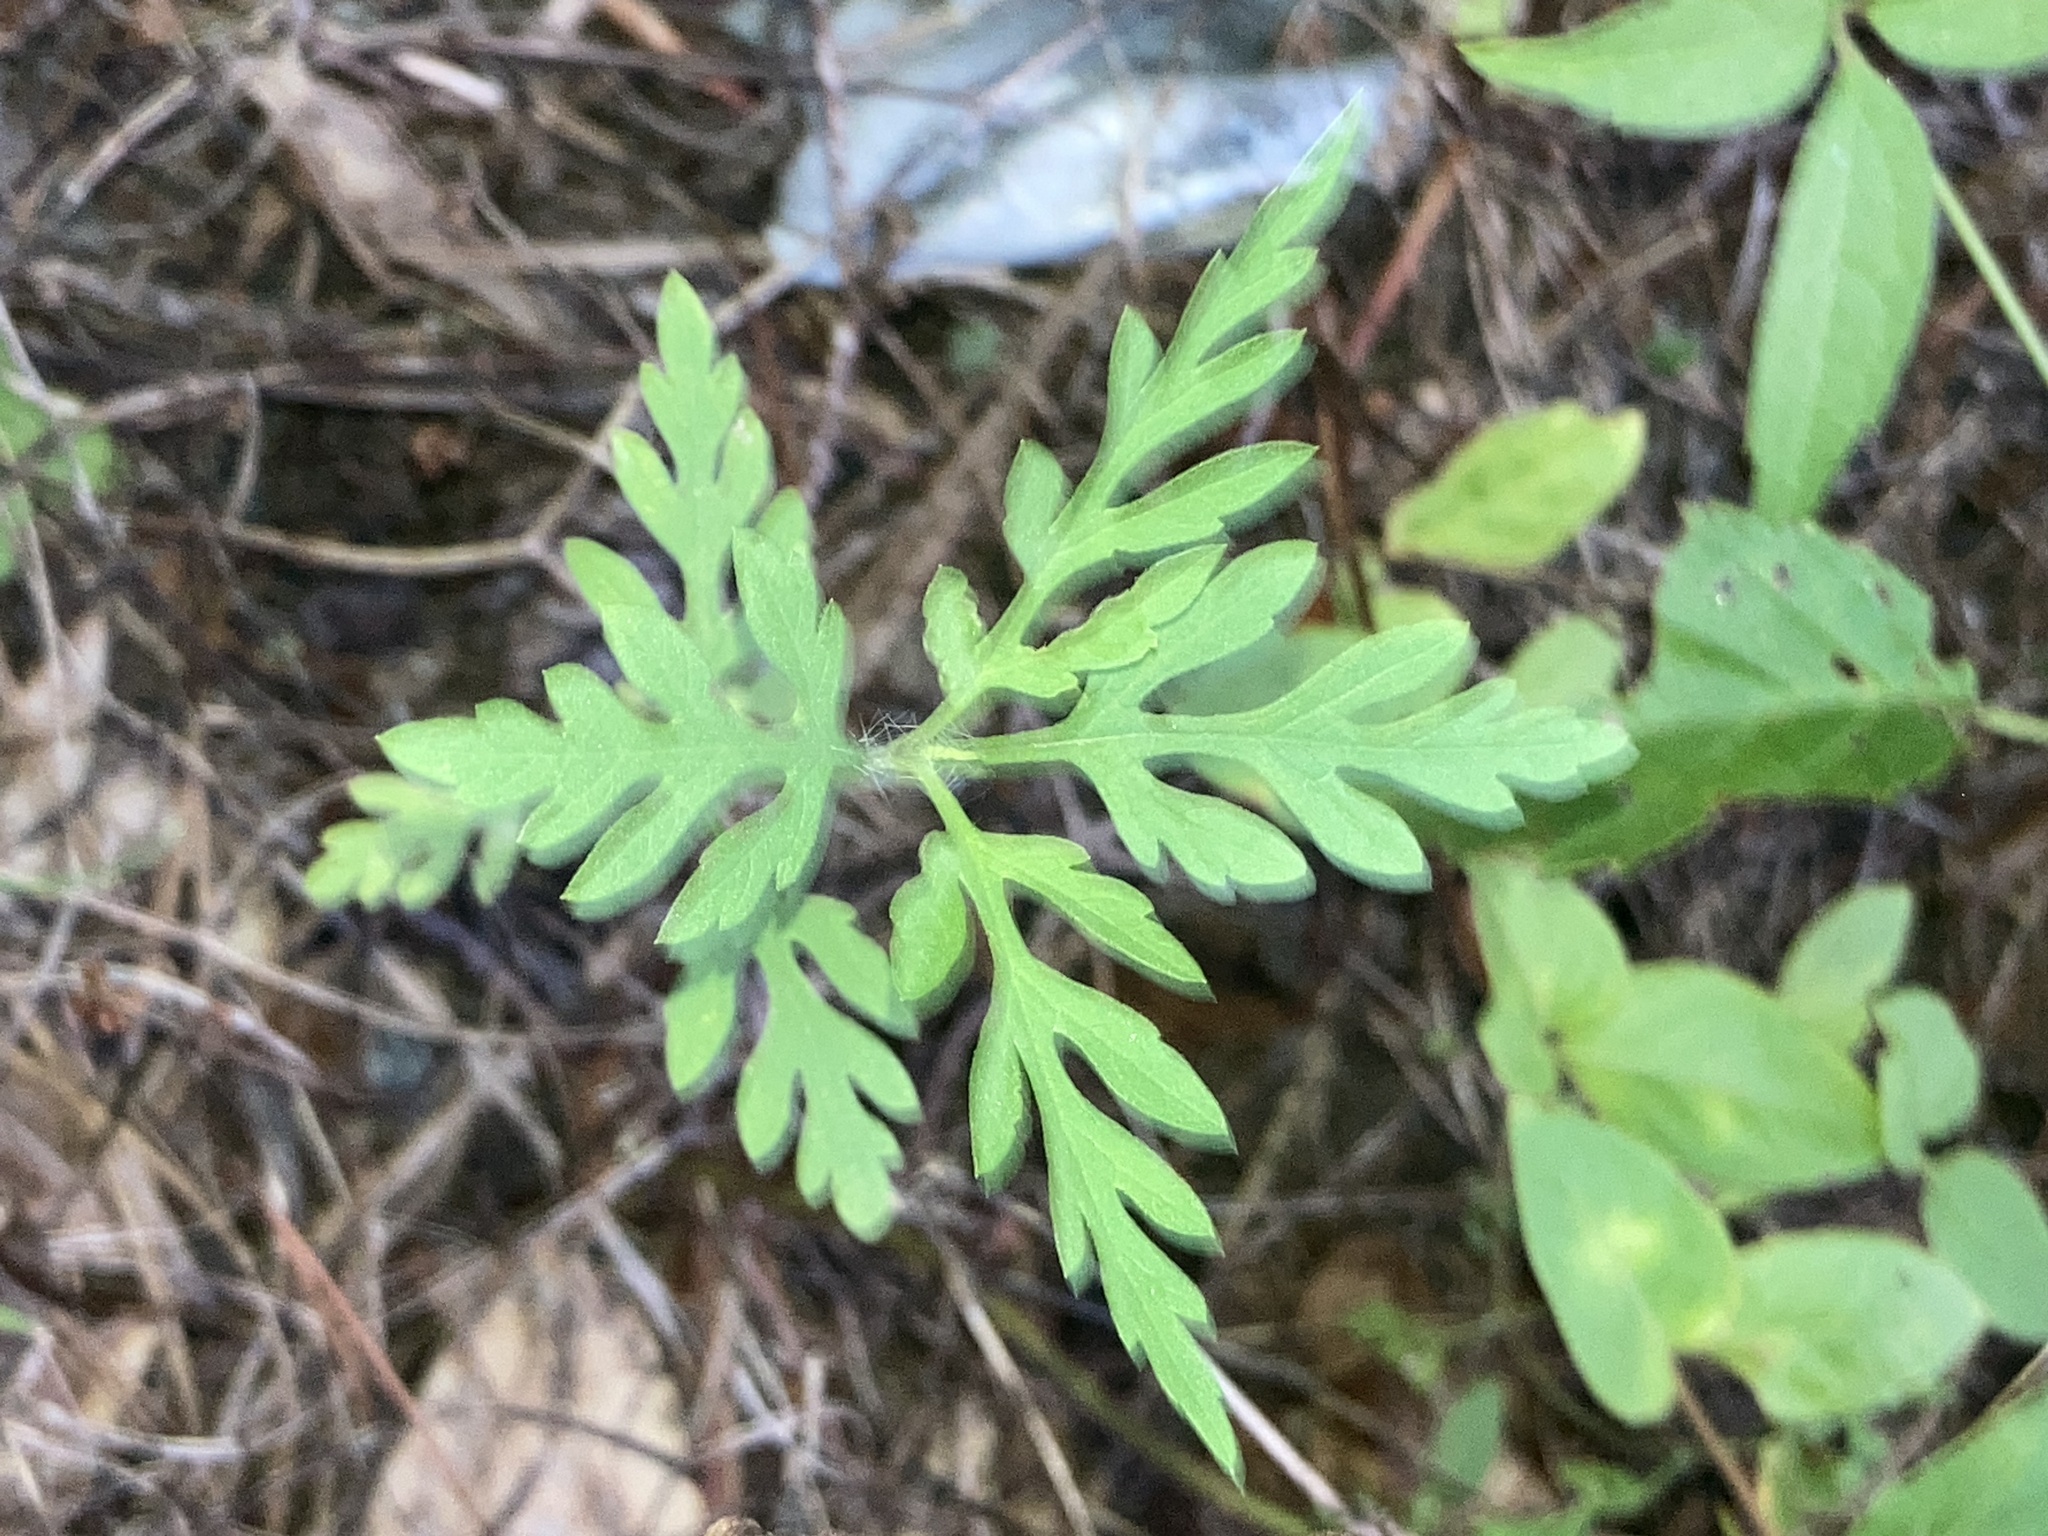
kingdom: Plantae
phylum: Tracheophyta
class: Magnoliopsida
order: Asterales
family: Asteraceae
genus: Ambrosia
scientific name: Ambrosia artemisiifolia
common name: Annual ragweed
